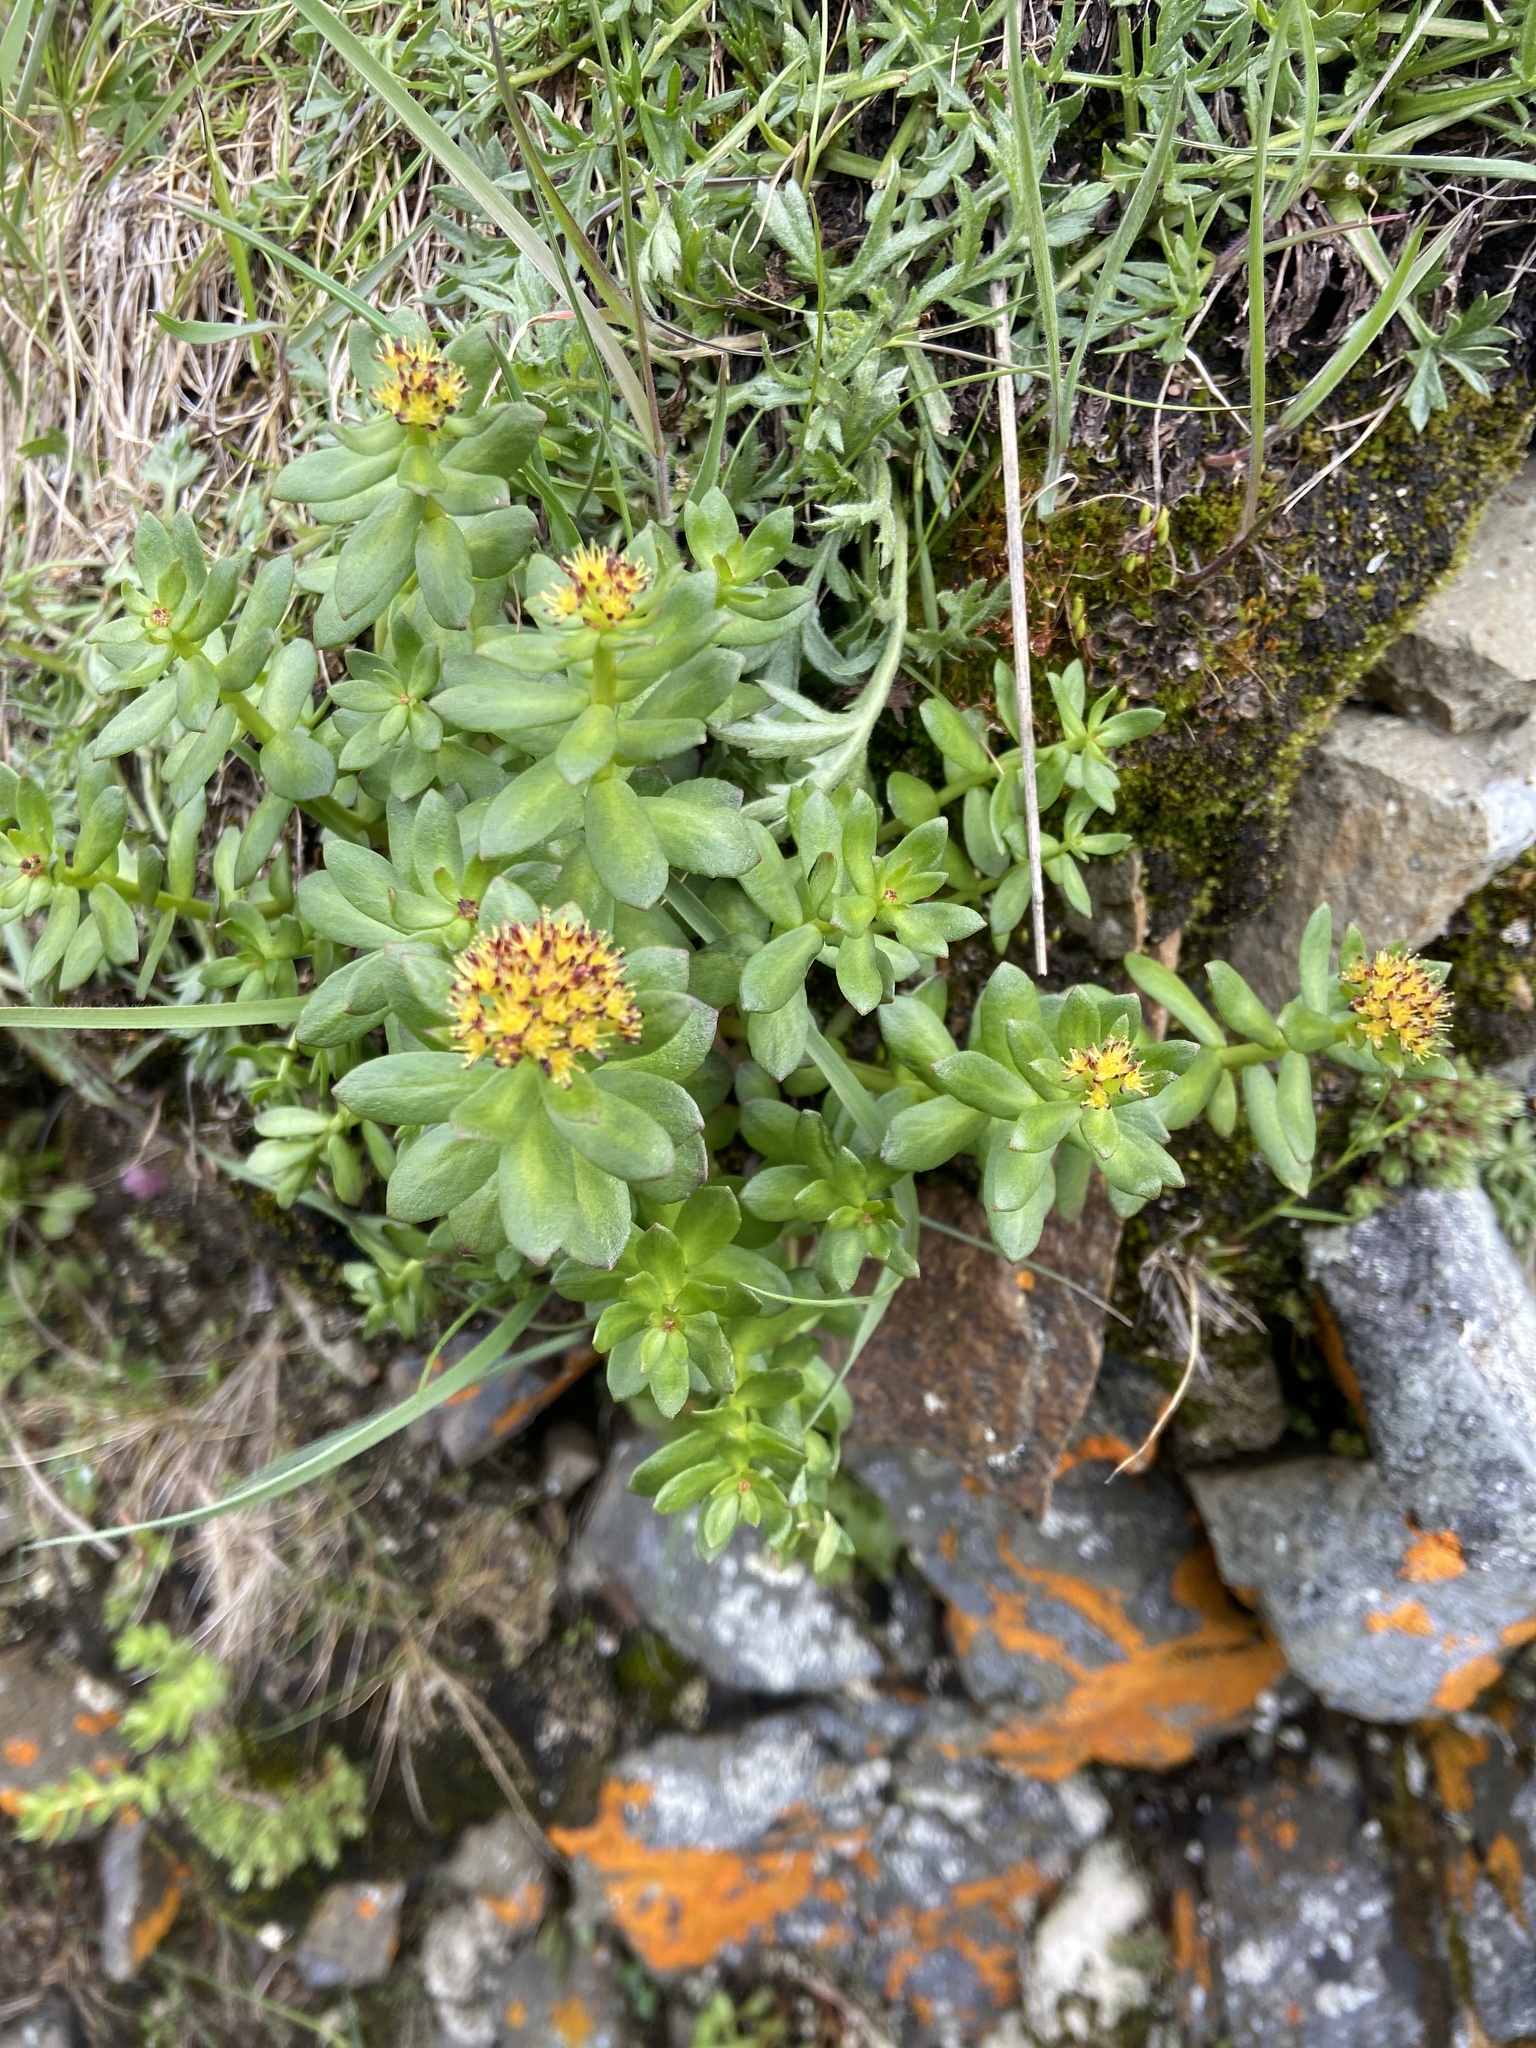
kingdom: Plantae
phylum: Tracheophyta
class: Magnoliopsida
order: Saxifragales
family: Crassulaceae
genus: Rhodiola
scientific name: Rhodiola rosea
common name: Roseroot
